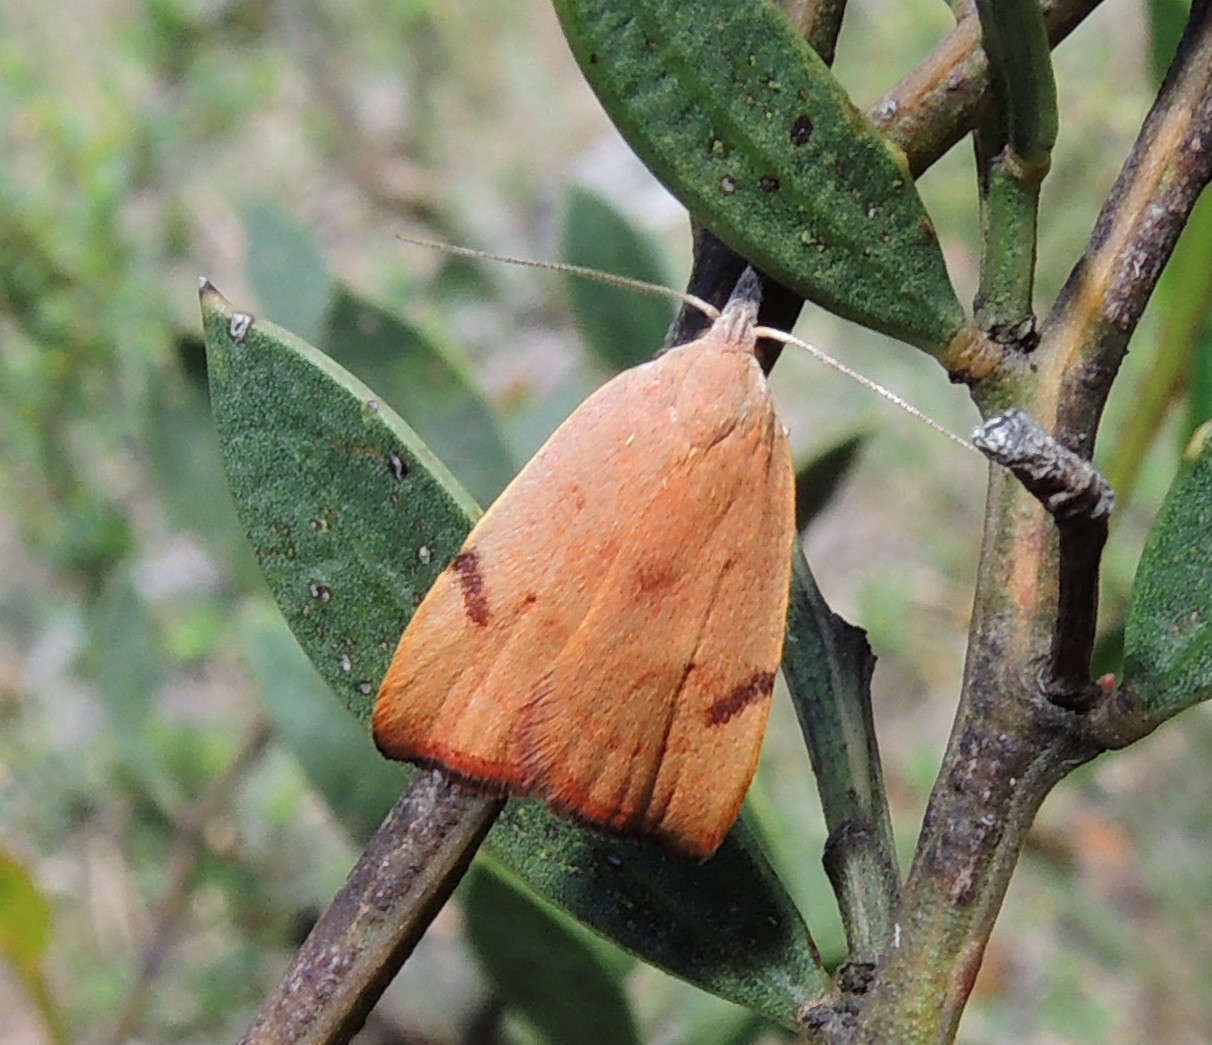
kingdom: Animalia
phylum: Arthropoda
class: Insecta
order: Lepidoptera
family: Oecophoridae
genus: Tortricopsis
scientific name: Tortricopsis uncinella
